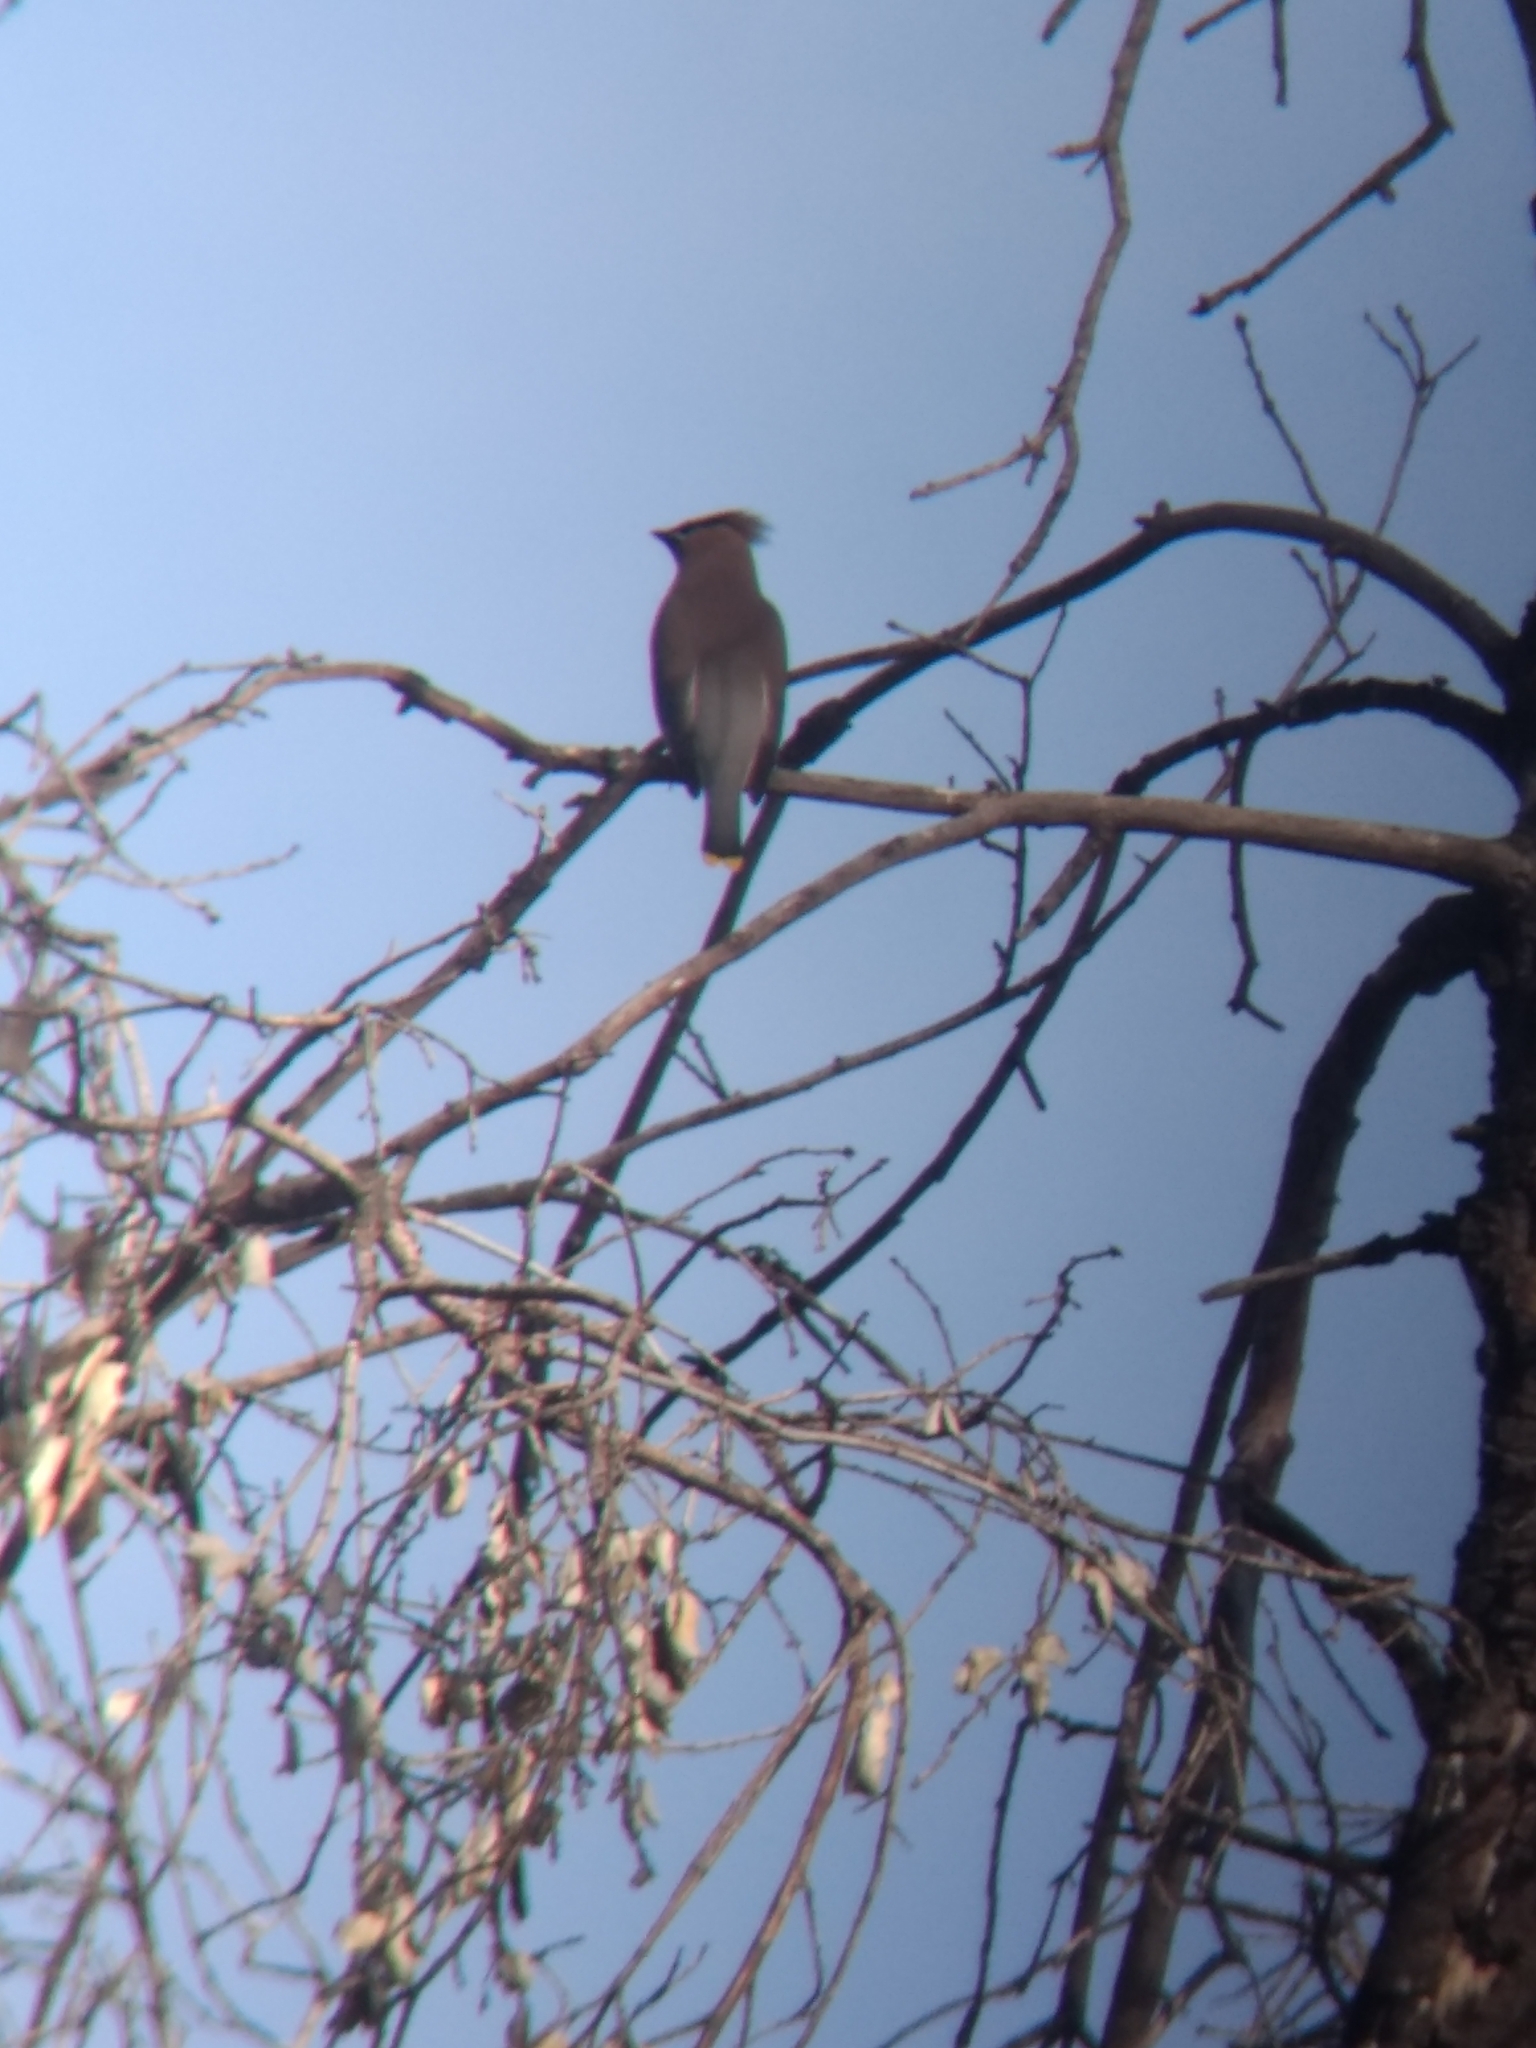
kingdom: Animalia
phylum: Chordata
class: Aves
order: Passeriformes
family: Bombycillidae
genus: Bombycilla
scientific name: Bombycilla cedrorum
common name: Cedar waxwing
